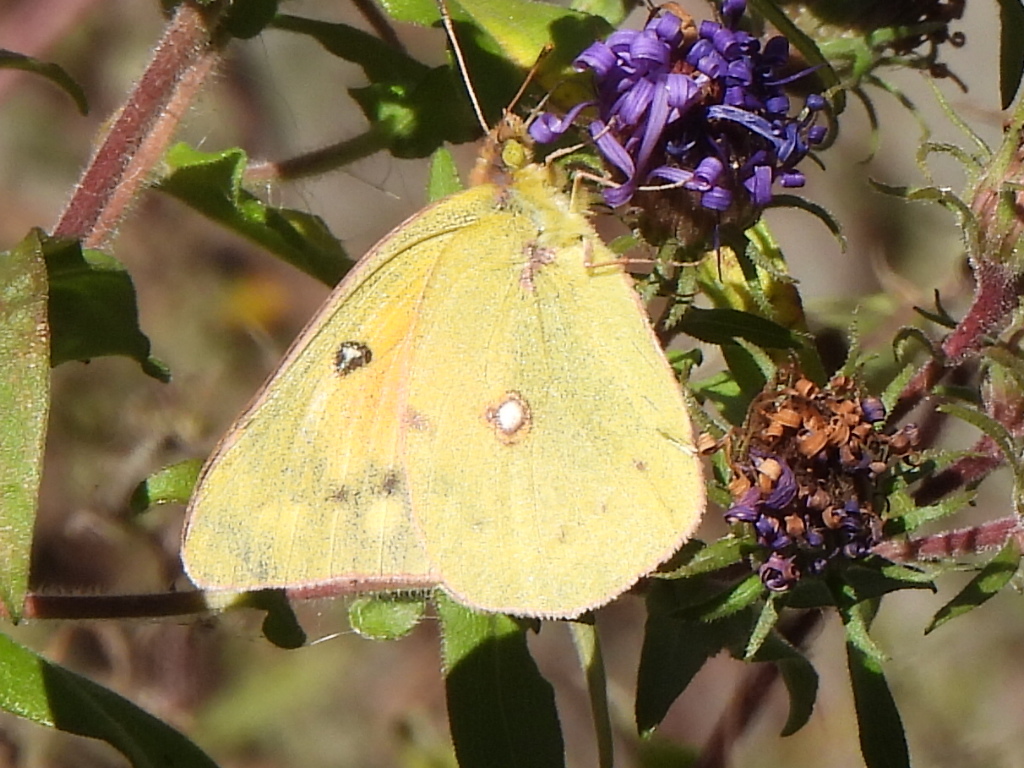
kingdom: Animalia
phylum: Arthropoda
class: Insecta
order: Lepidoptera
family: Pieridae
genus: Colias
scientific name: Colias eurytheme
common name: Alfalfa butterfly
